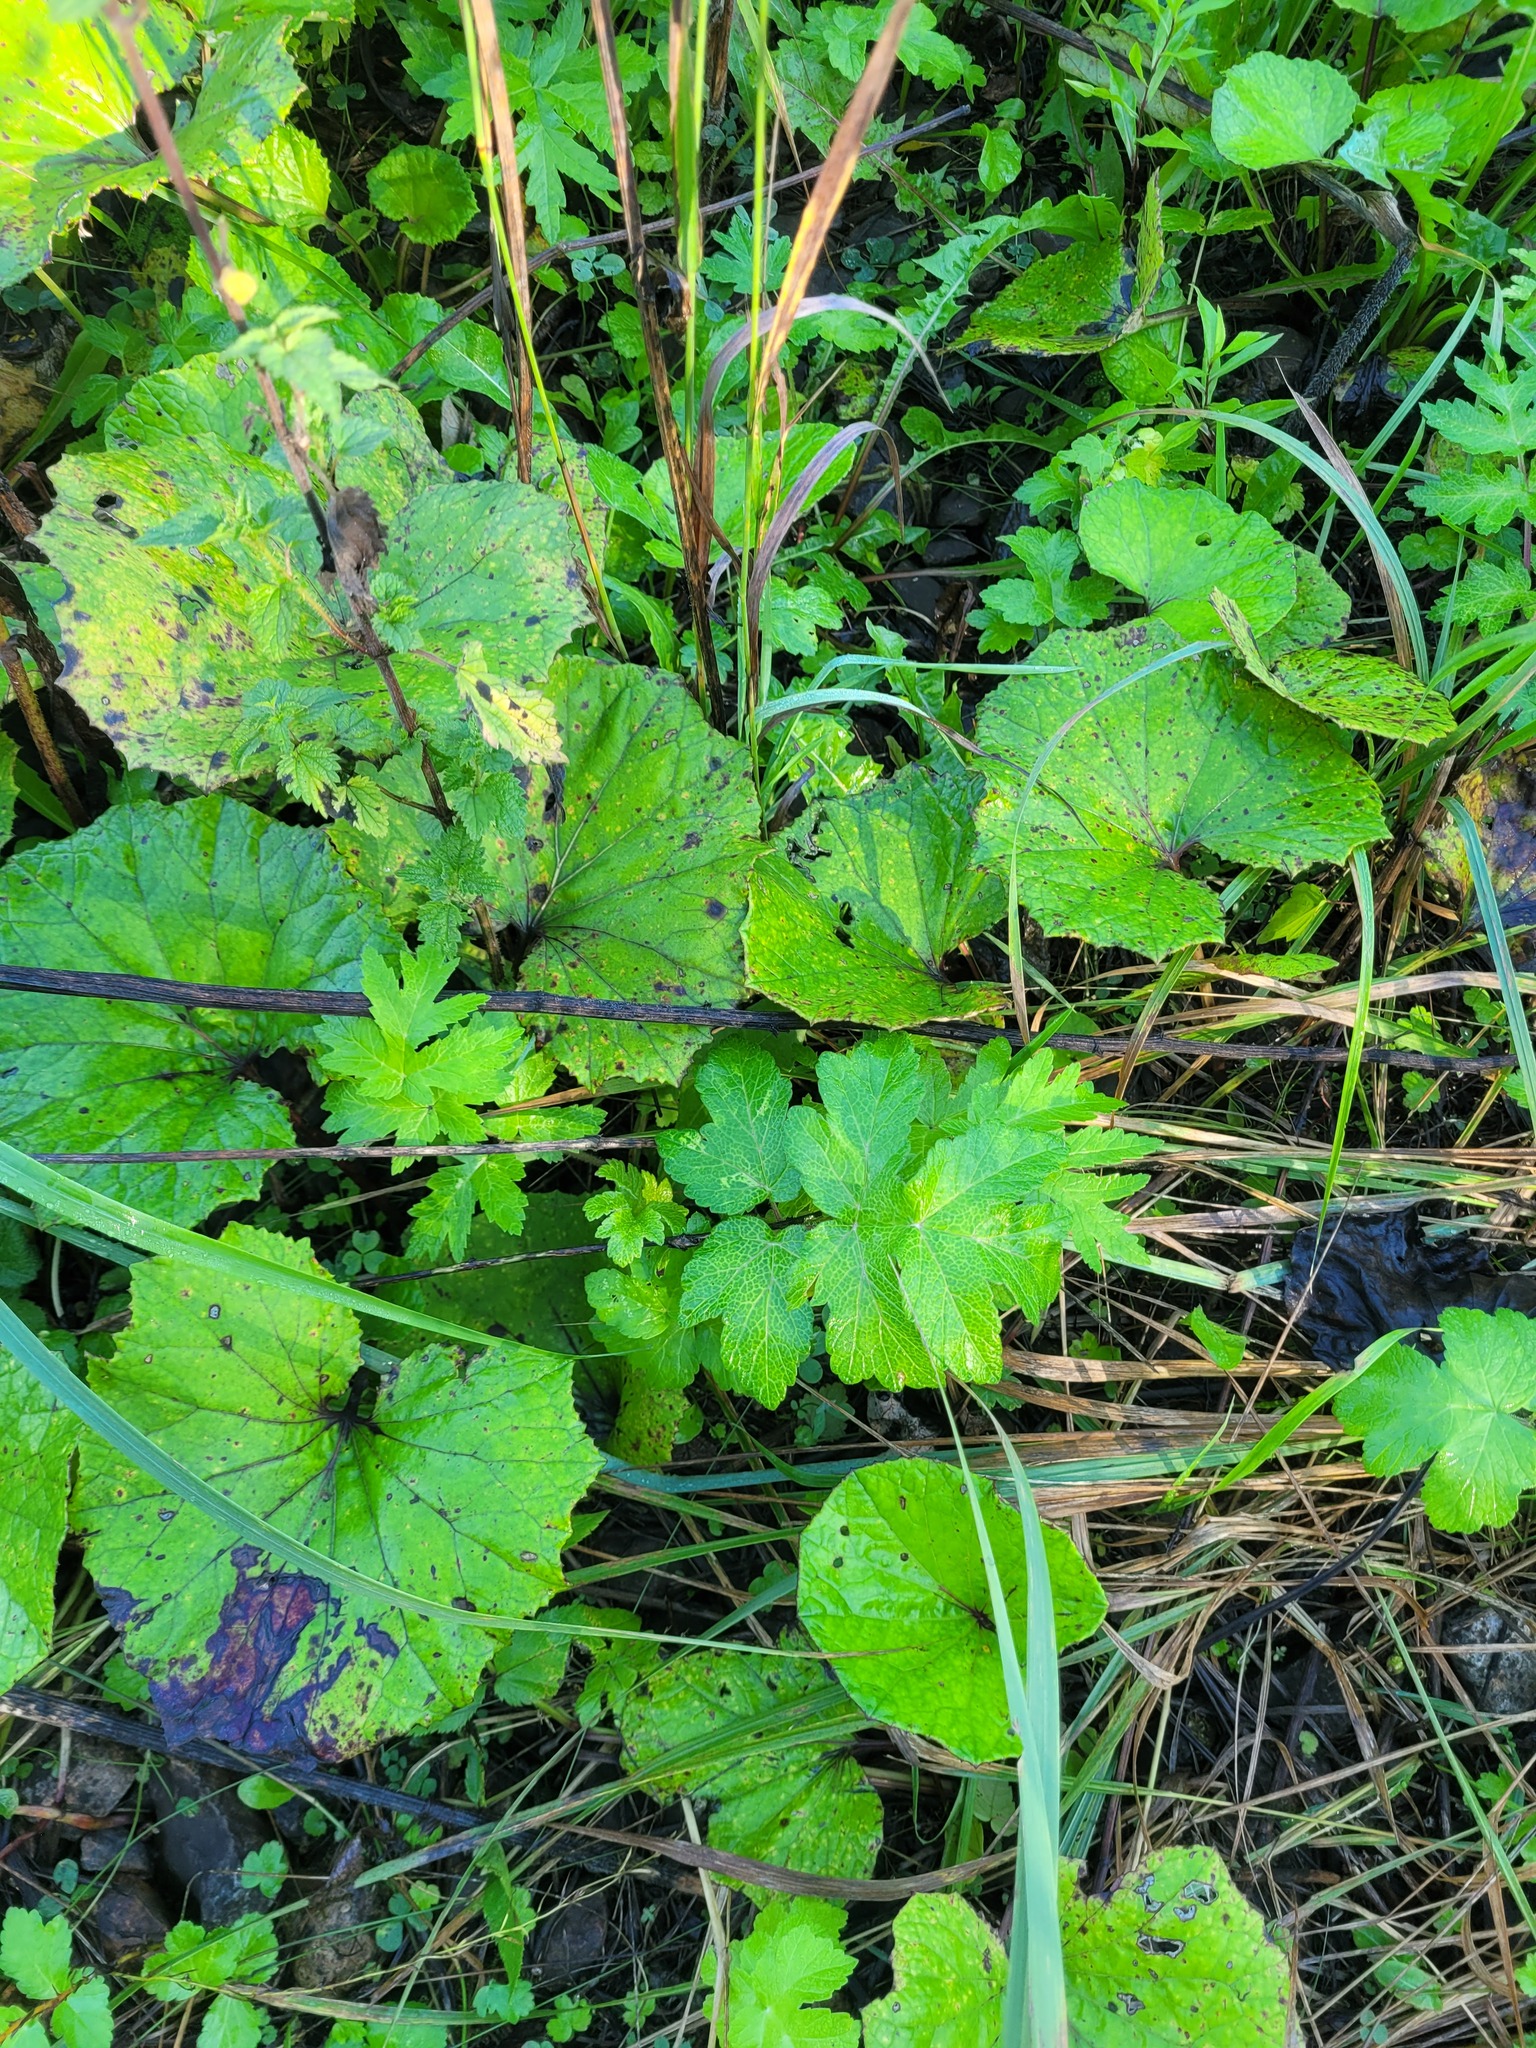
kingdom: Plantae
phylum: Tracheophyta
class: Magnoliopsida
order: Apiales
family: Apiaceae
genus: Heracleum
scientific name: Heracleum sphondylium
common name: Hogweed
